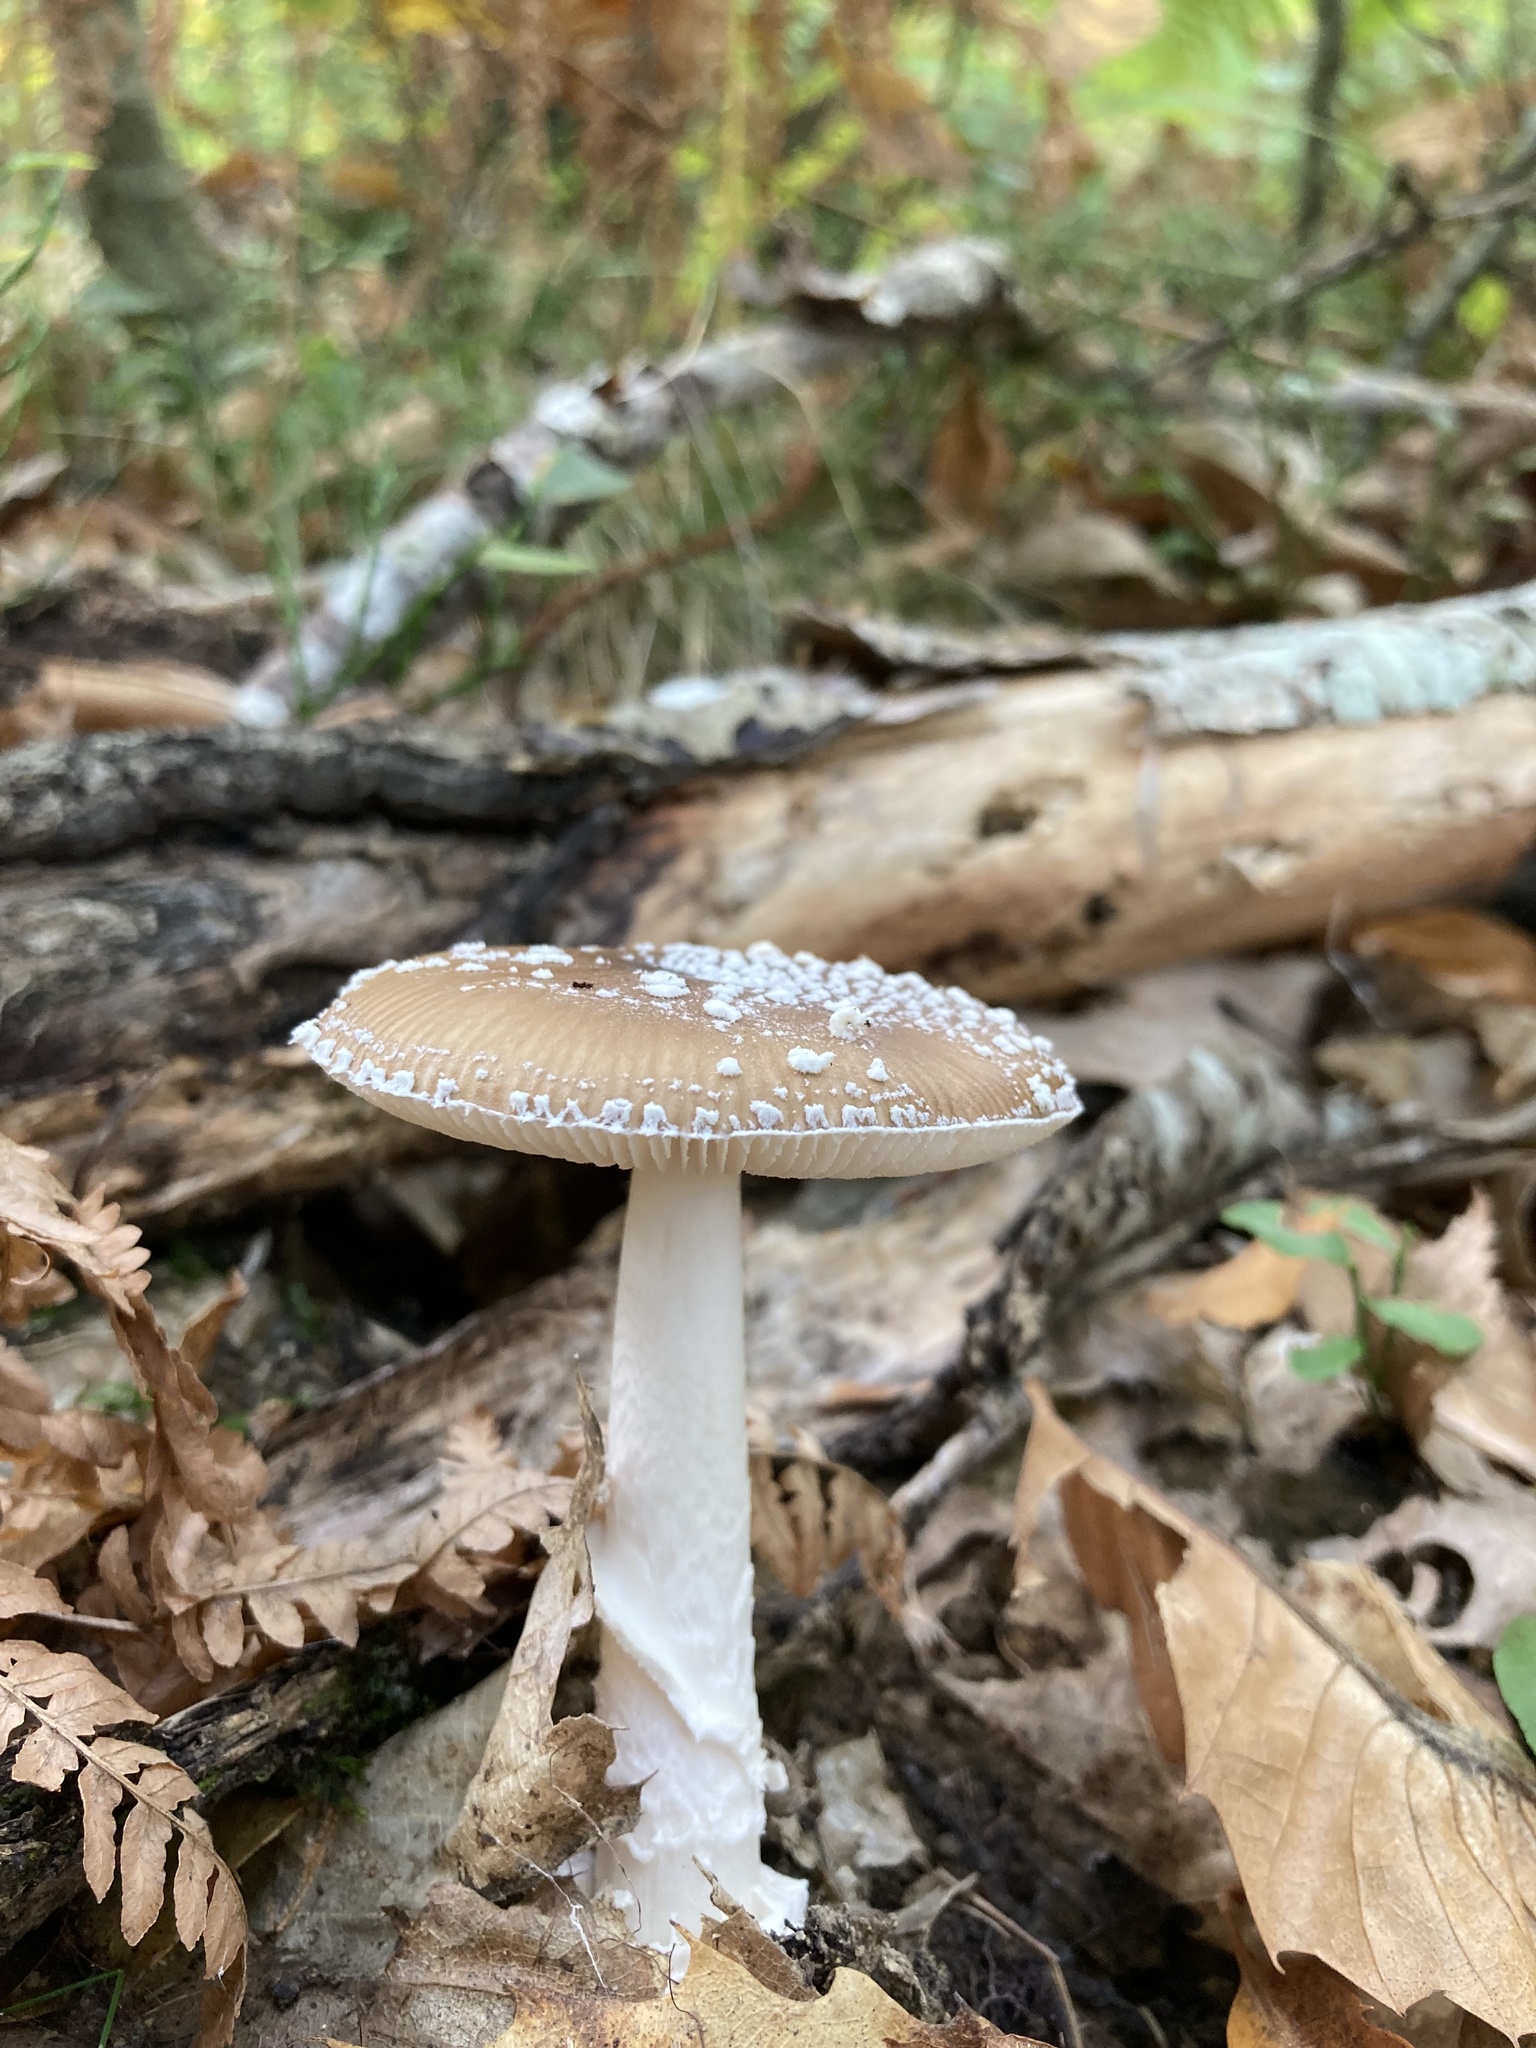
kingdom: Fungi
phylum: Basidiomycota
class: Agaricomycetes
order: Agaricales
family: Amanitaceae
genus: Amanita
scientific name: Amanita pantherina
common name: Panthercap
